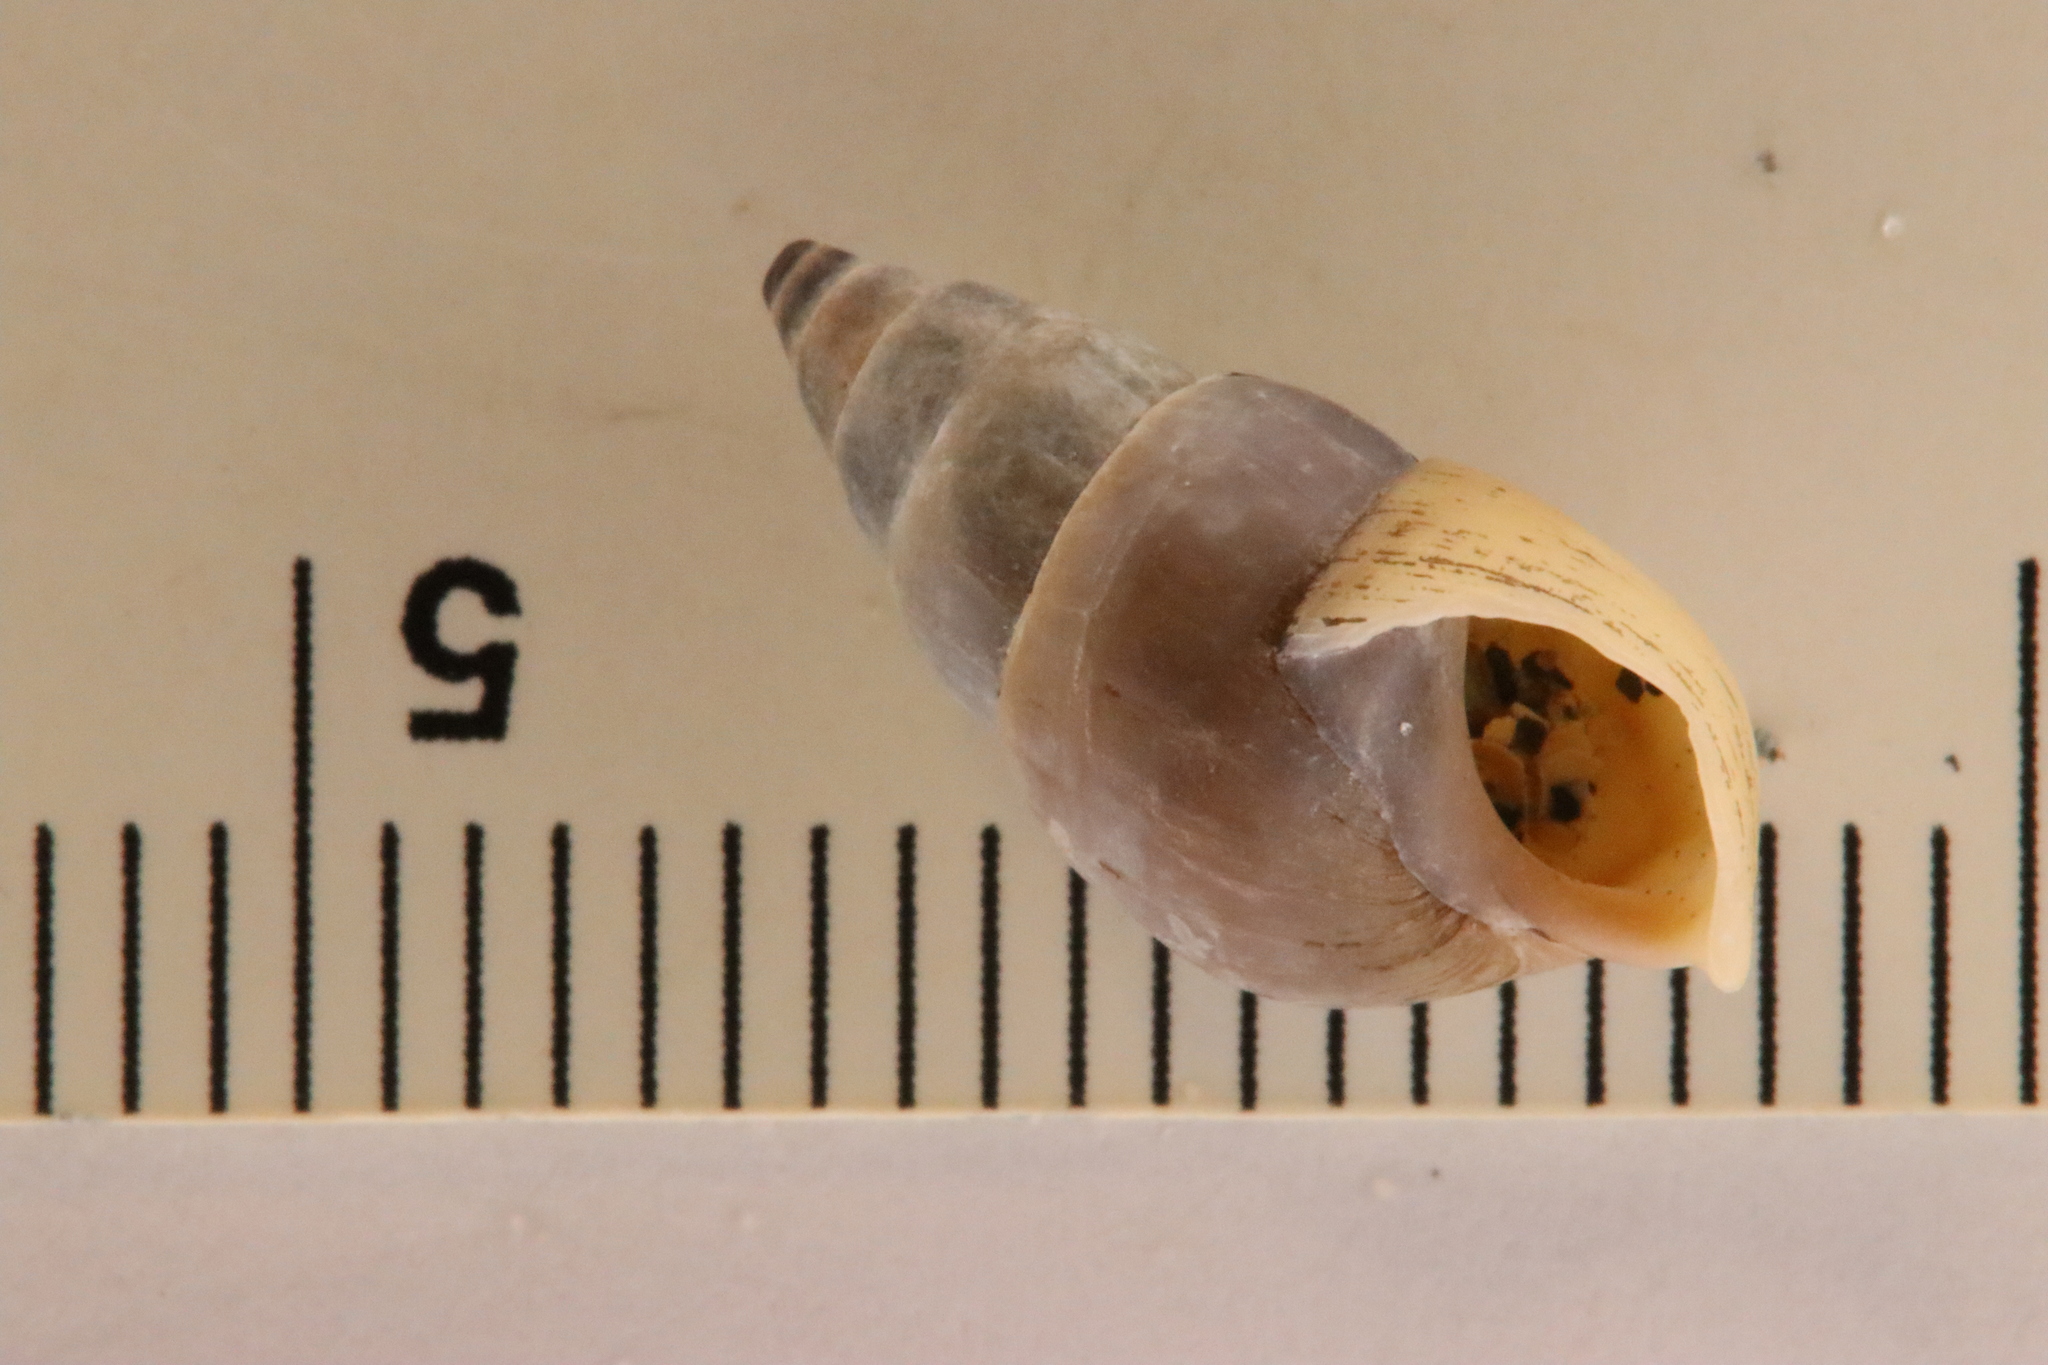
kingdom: Animalia
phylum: Mollusca
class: Gastropoda
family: Pleuroceridae
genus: Elimia
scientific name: Elimia livescens
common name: Liver elimia
